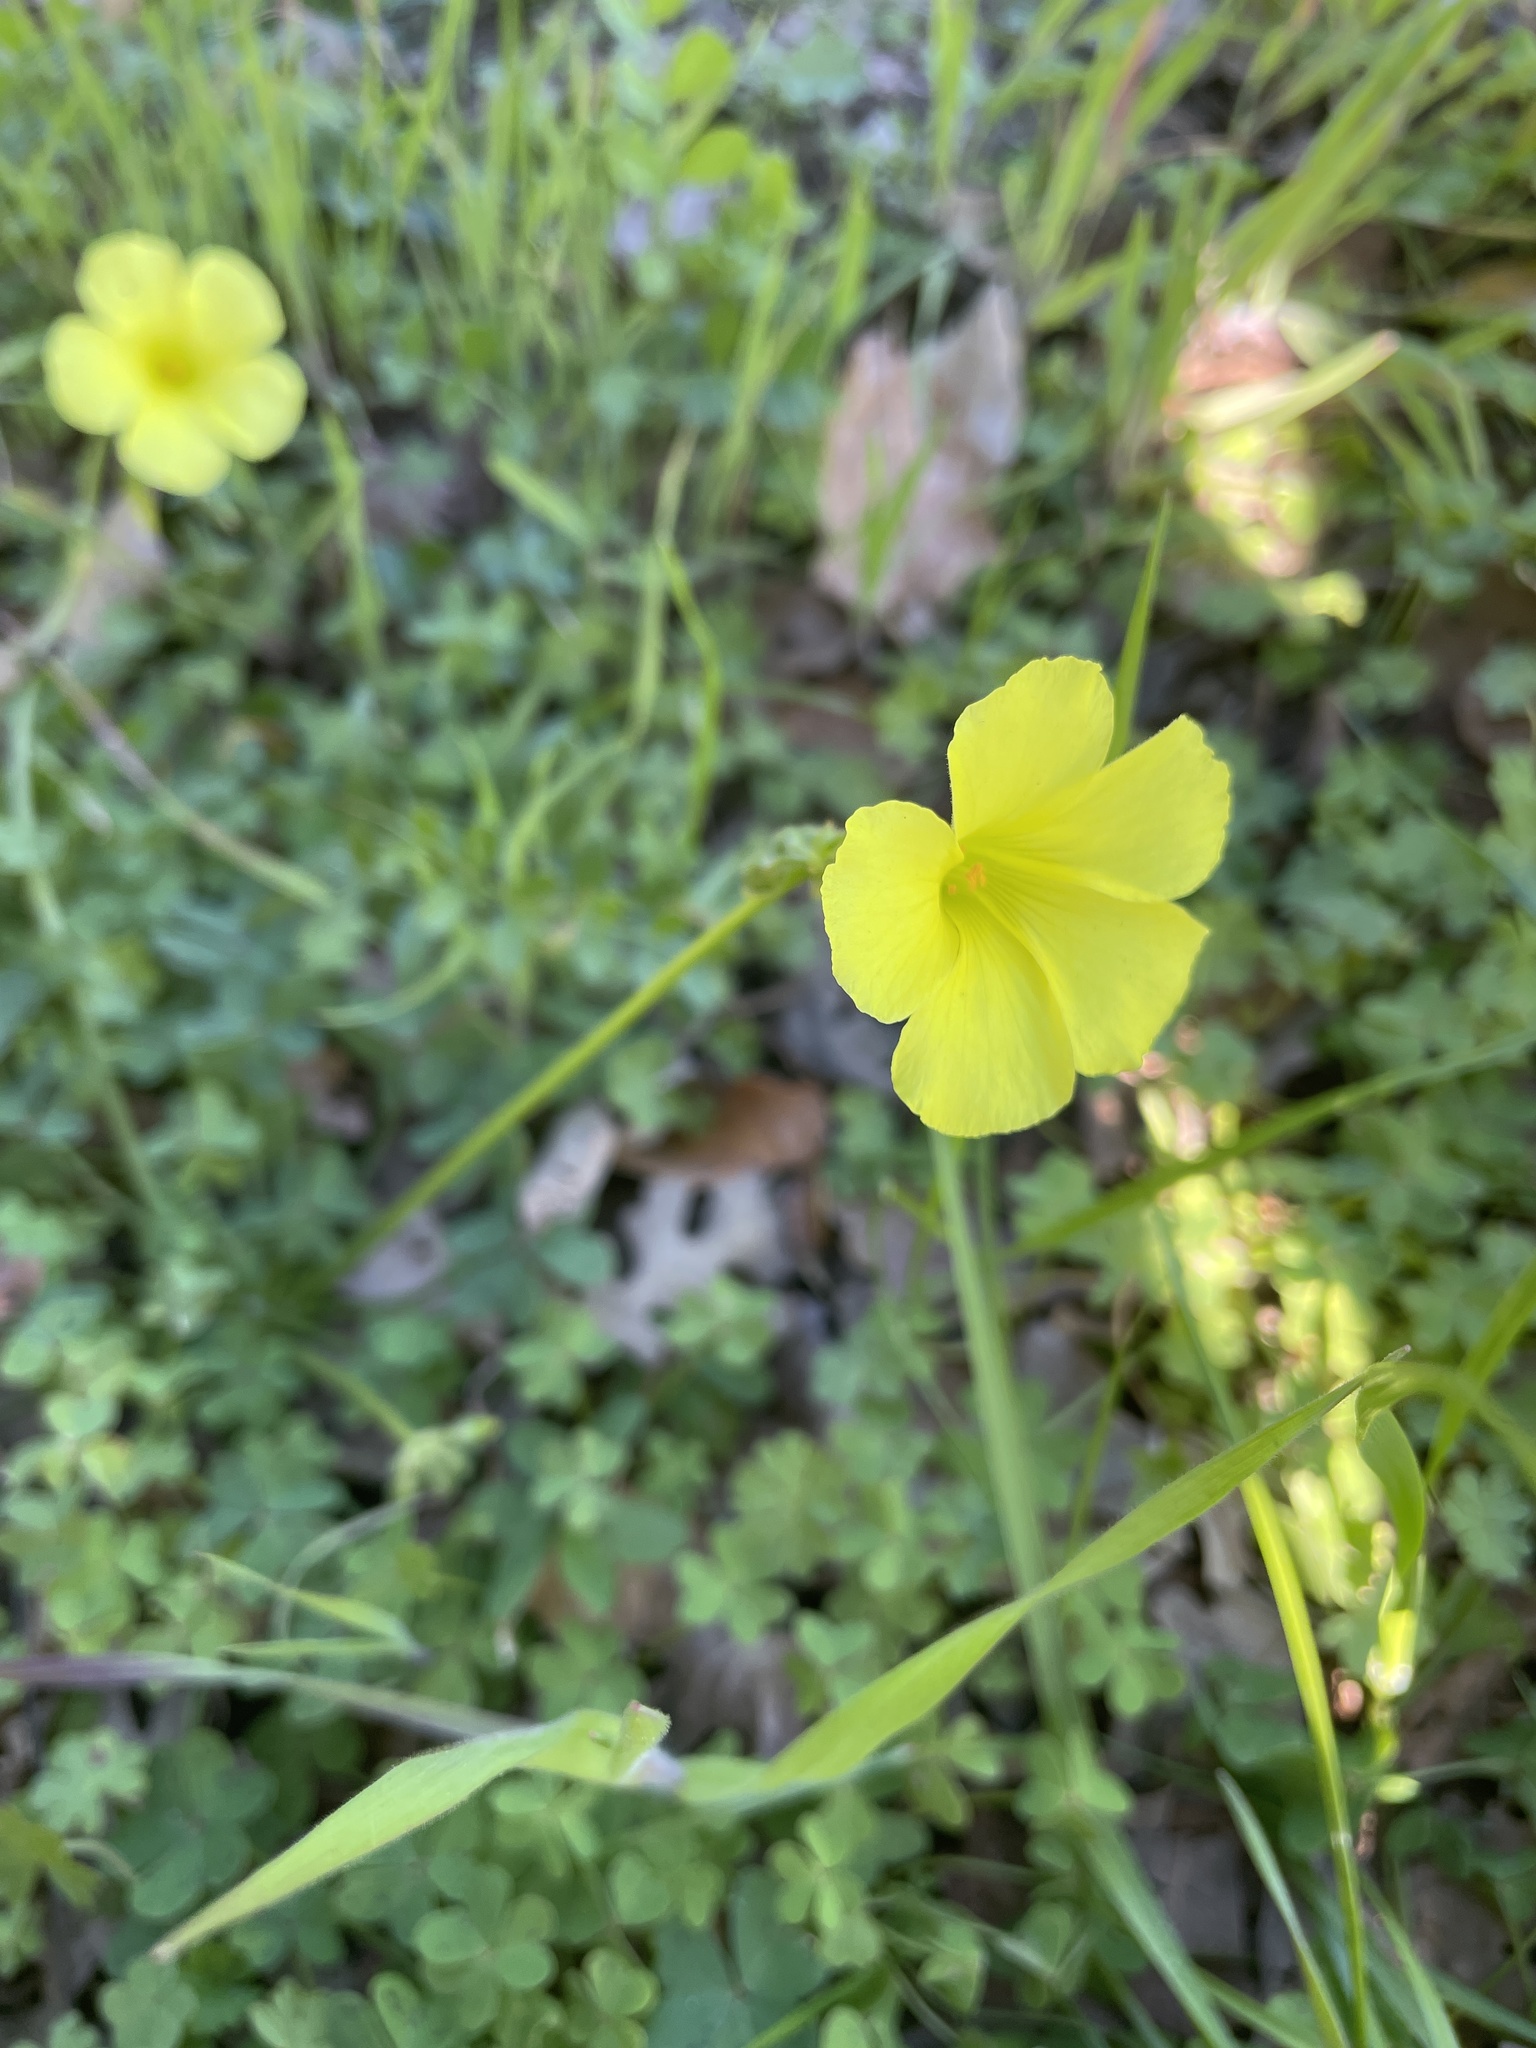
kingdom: Plantae
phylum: Tracheophyta
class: Magnoliopsida
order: Oxalidales
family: Oxalidaceae
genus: Oxalis
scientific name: Oxalis pes-caprae
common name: Bermuda-buttercup
